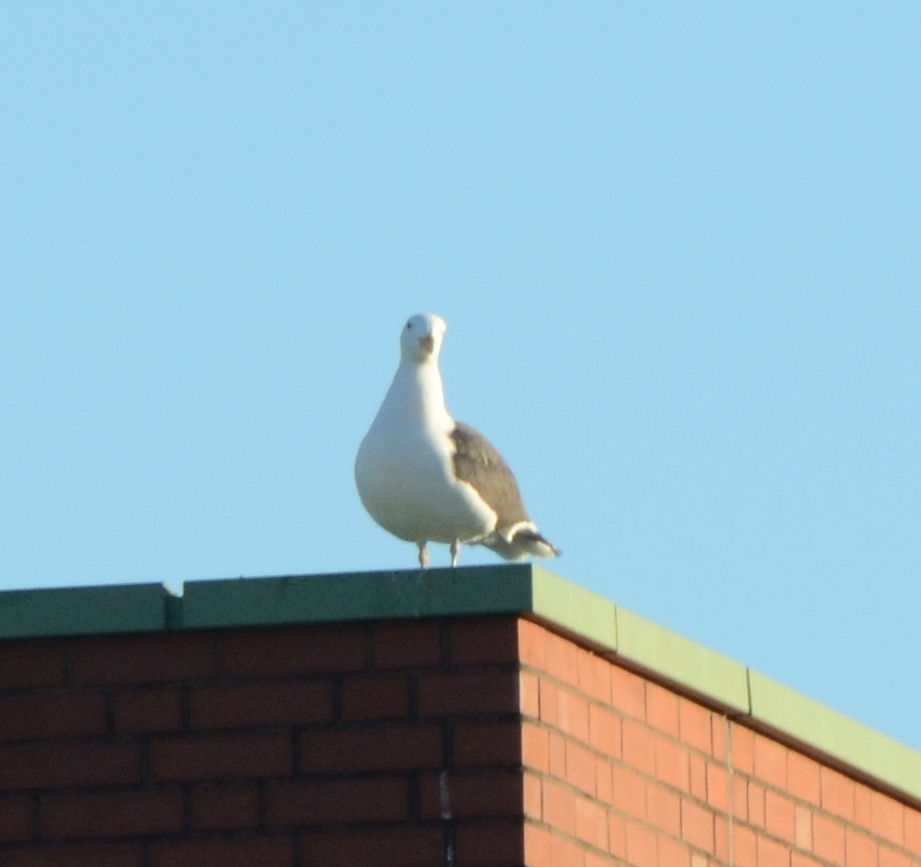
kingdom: Animalia
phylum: Chordata
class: Aves
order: Charadriiformes
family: Laridae
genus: Larus
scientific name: Larus marinus
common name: Great black-backed gull
